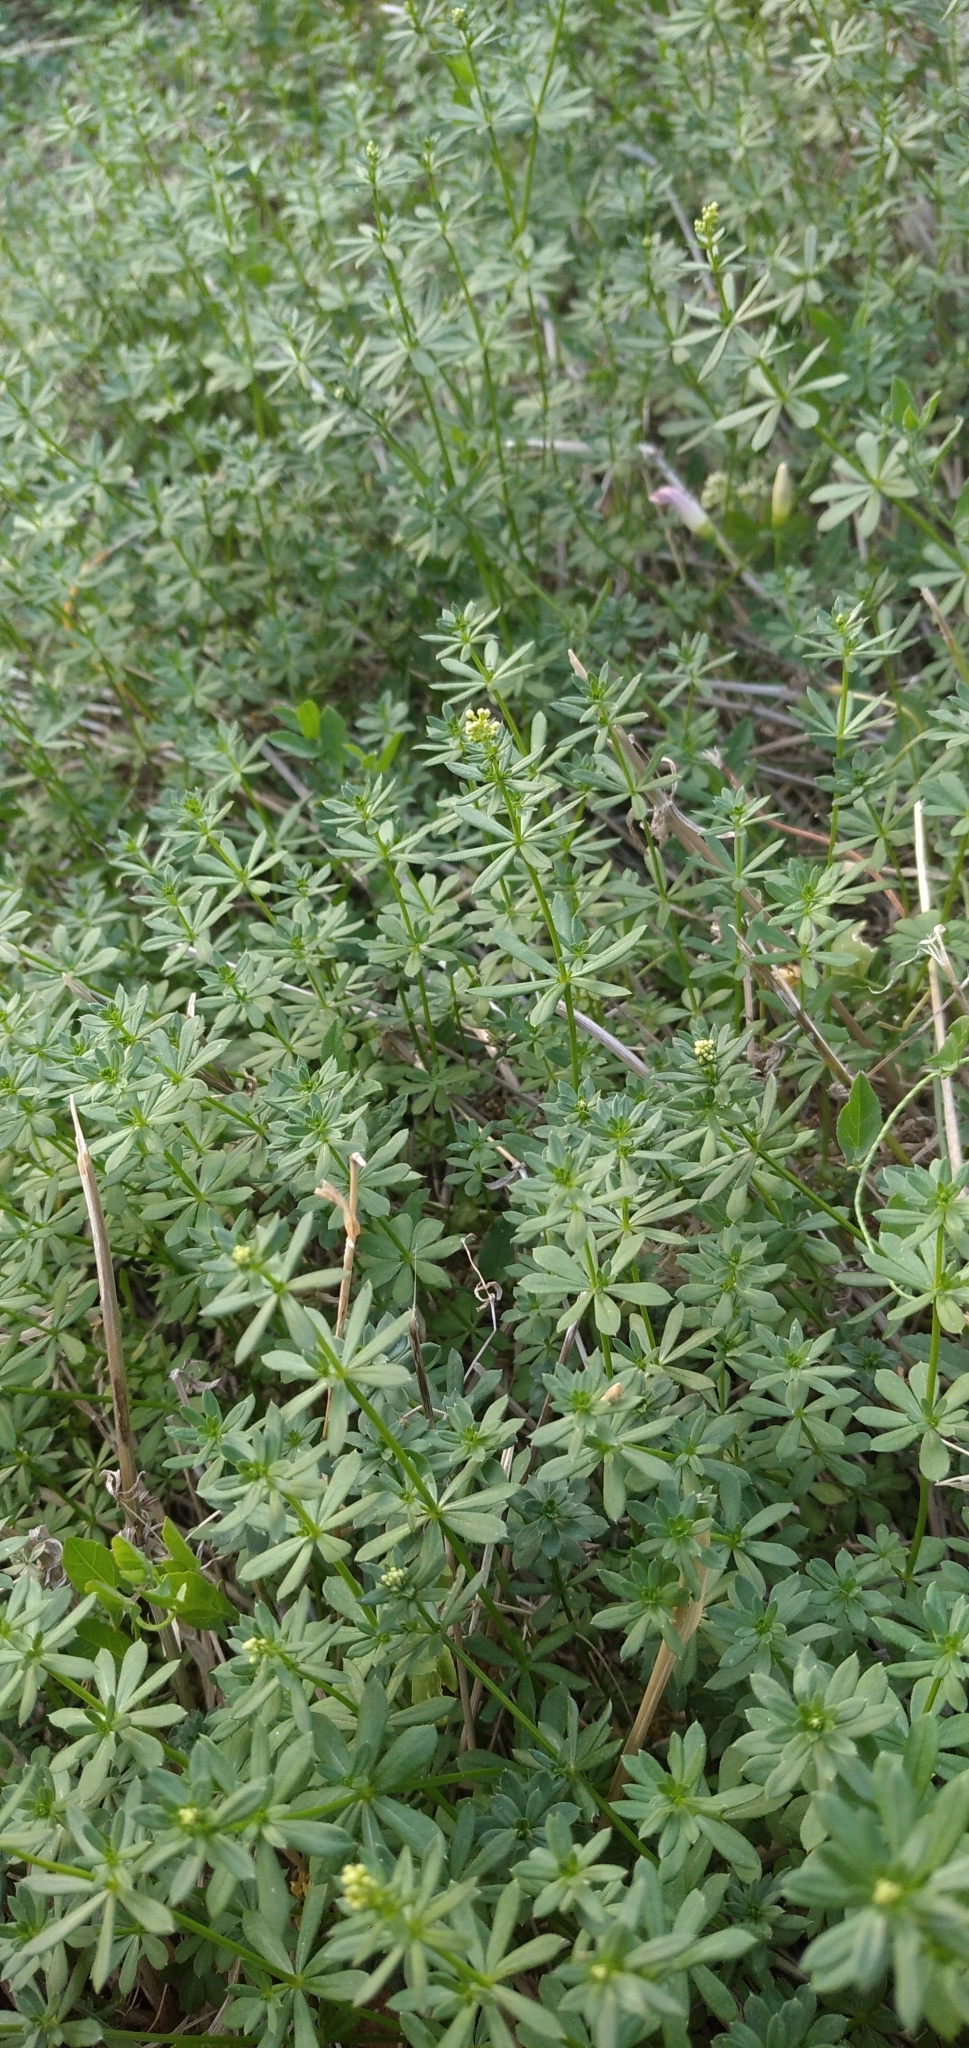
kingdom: Plantae
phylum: Tracheophyta
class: Magnoliopsida
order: Gentianales
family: Rubiaceae
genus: Galium
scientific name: Galium mollugo
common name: Hedge bedstraw
